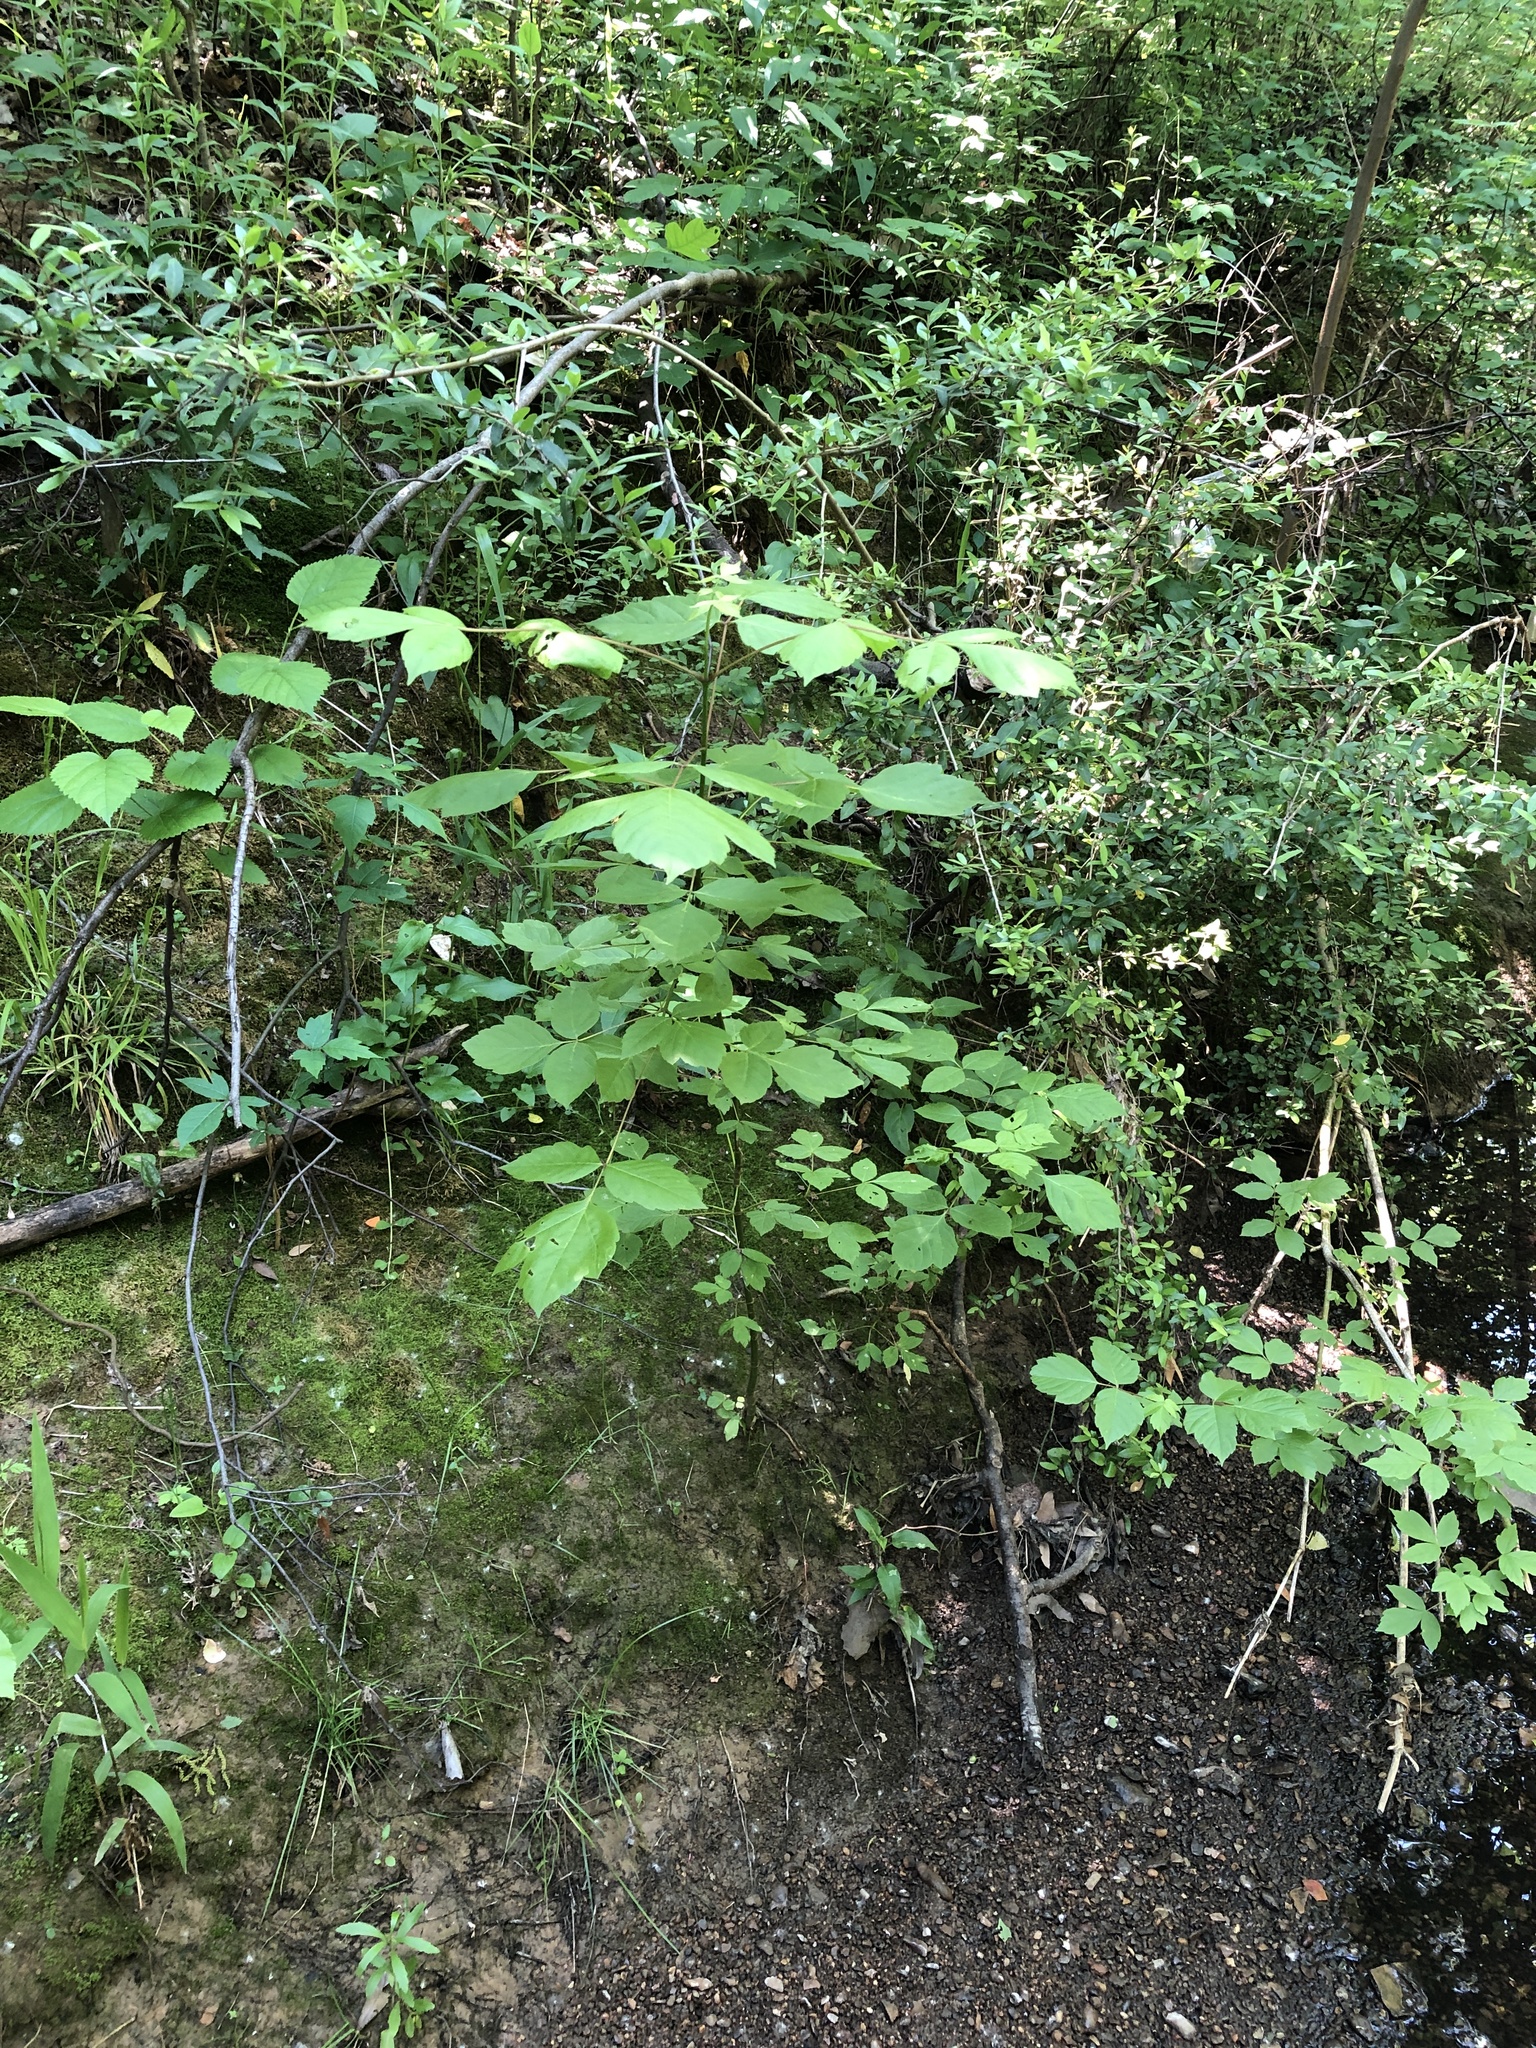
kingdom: Plantae
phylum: Tracheophyta
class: Magnoliopsida
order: Sapindales
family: Sapindaceae
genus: Acer
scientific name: Acer negundo
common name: Ashleaf maple
